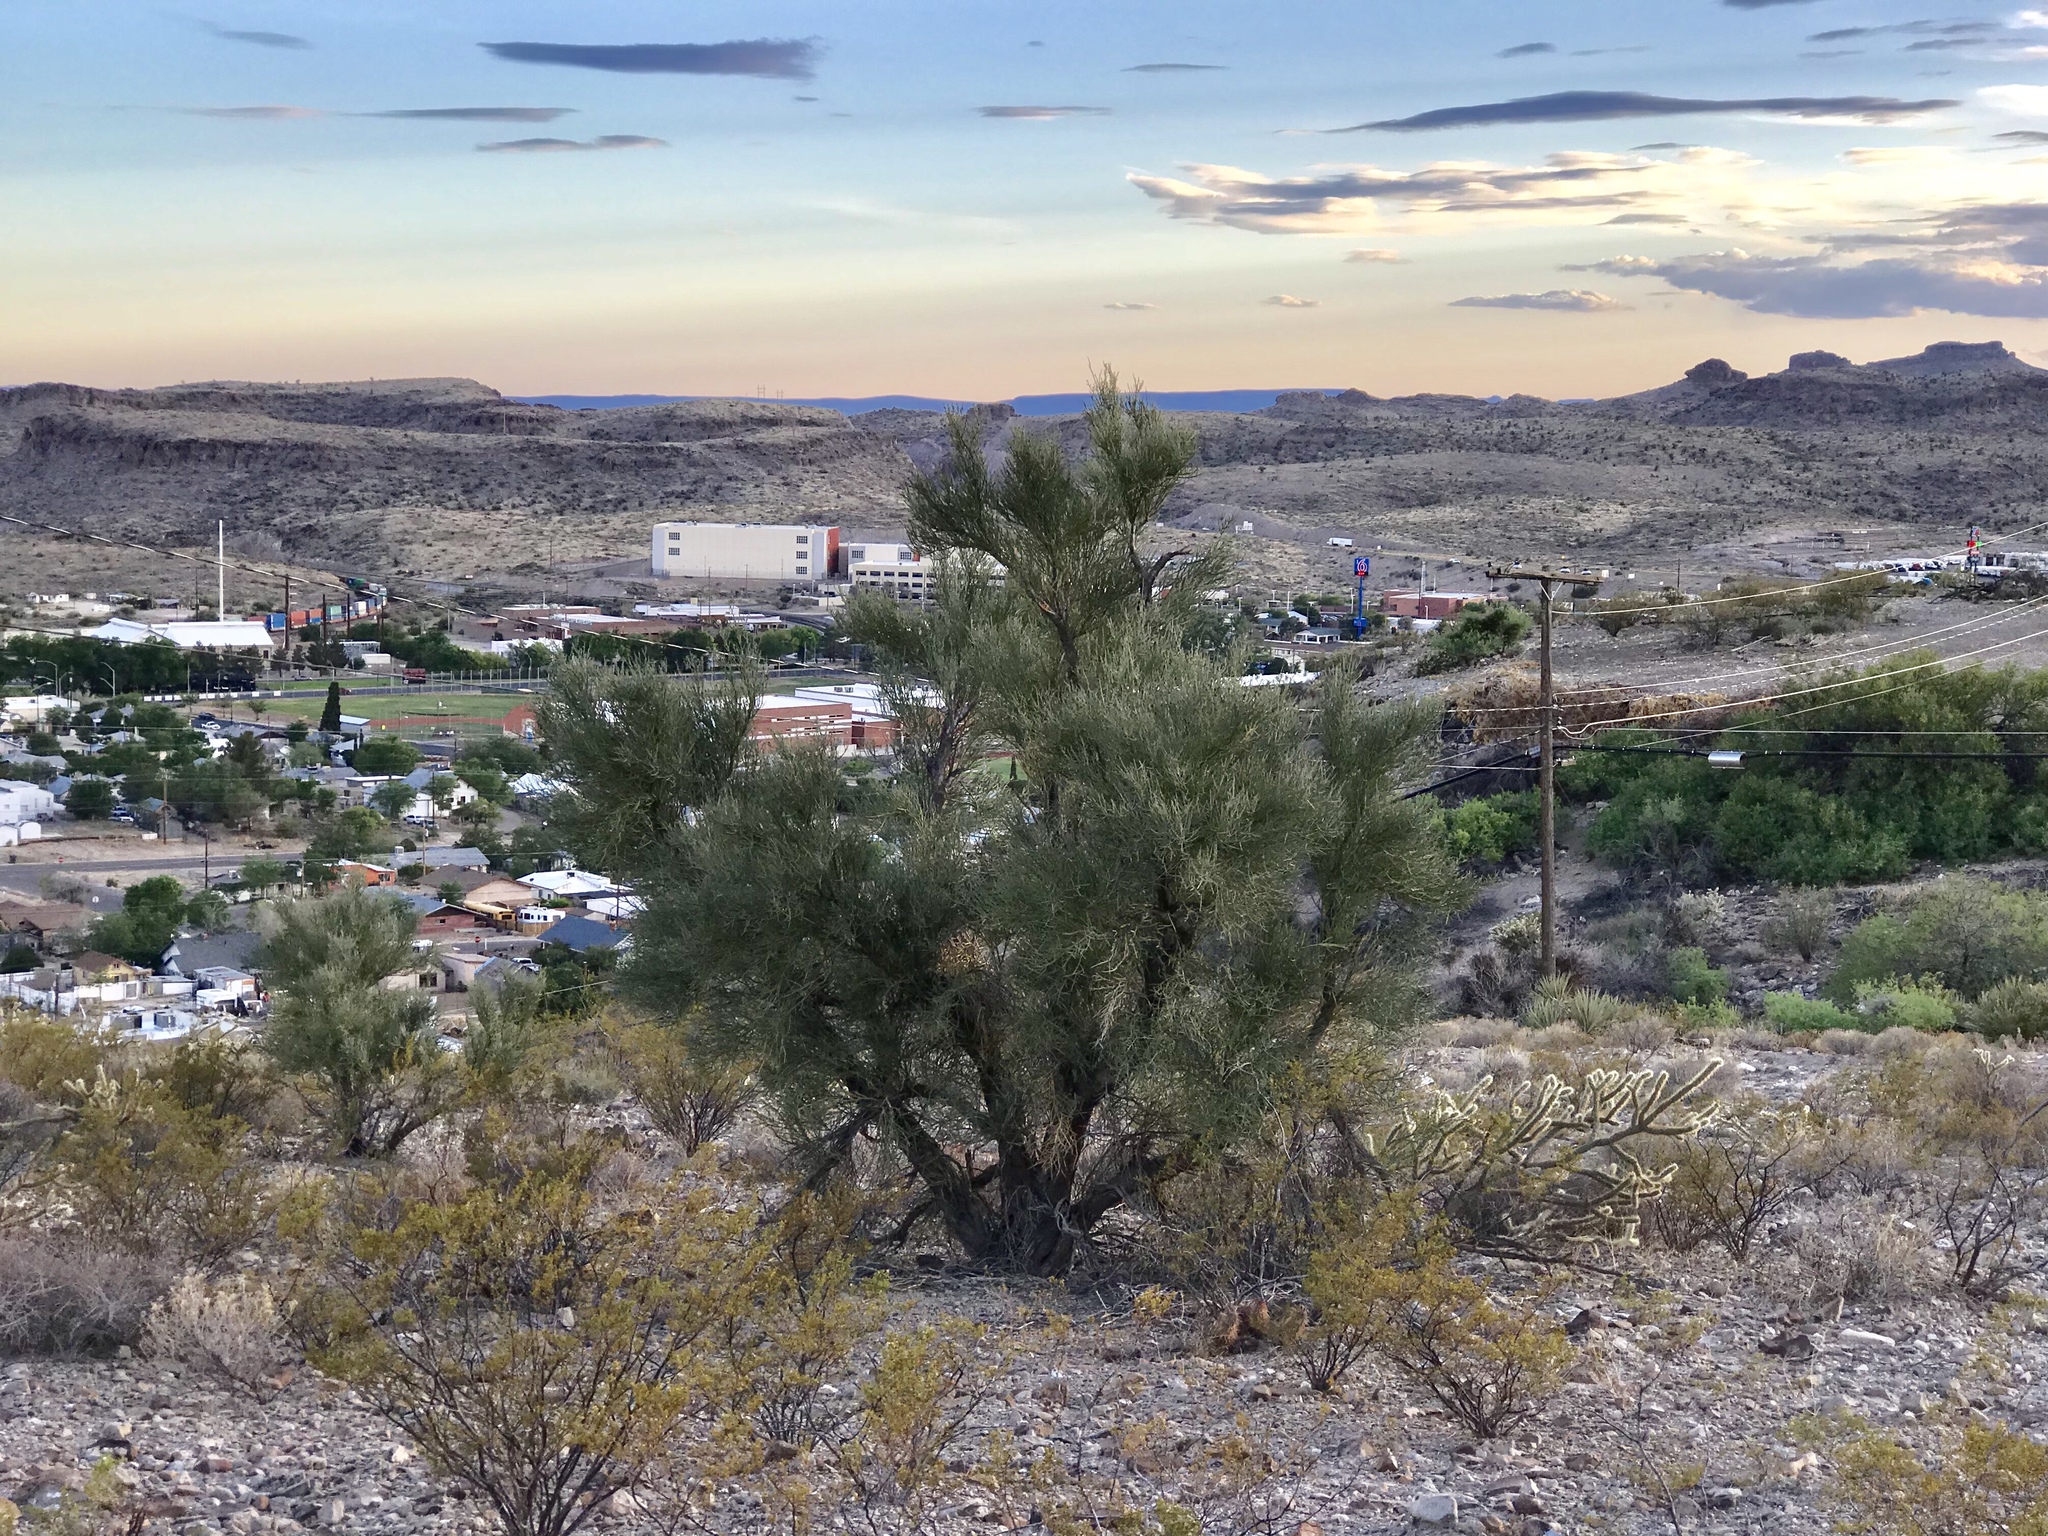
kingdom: Plantae
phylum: Tracheophyta
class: Magnoliopsida
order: Celastrales
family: Celastraceae
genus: Canotia
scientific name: Canotia holacantha
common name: Crucifixion thorns
